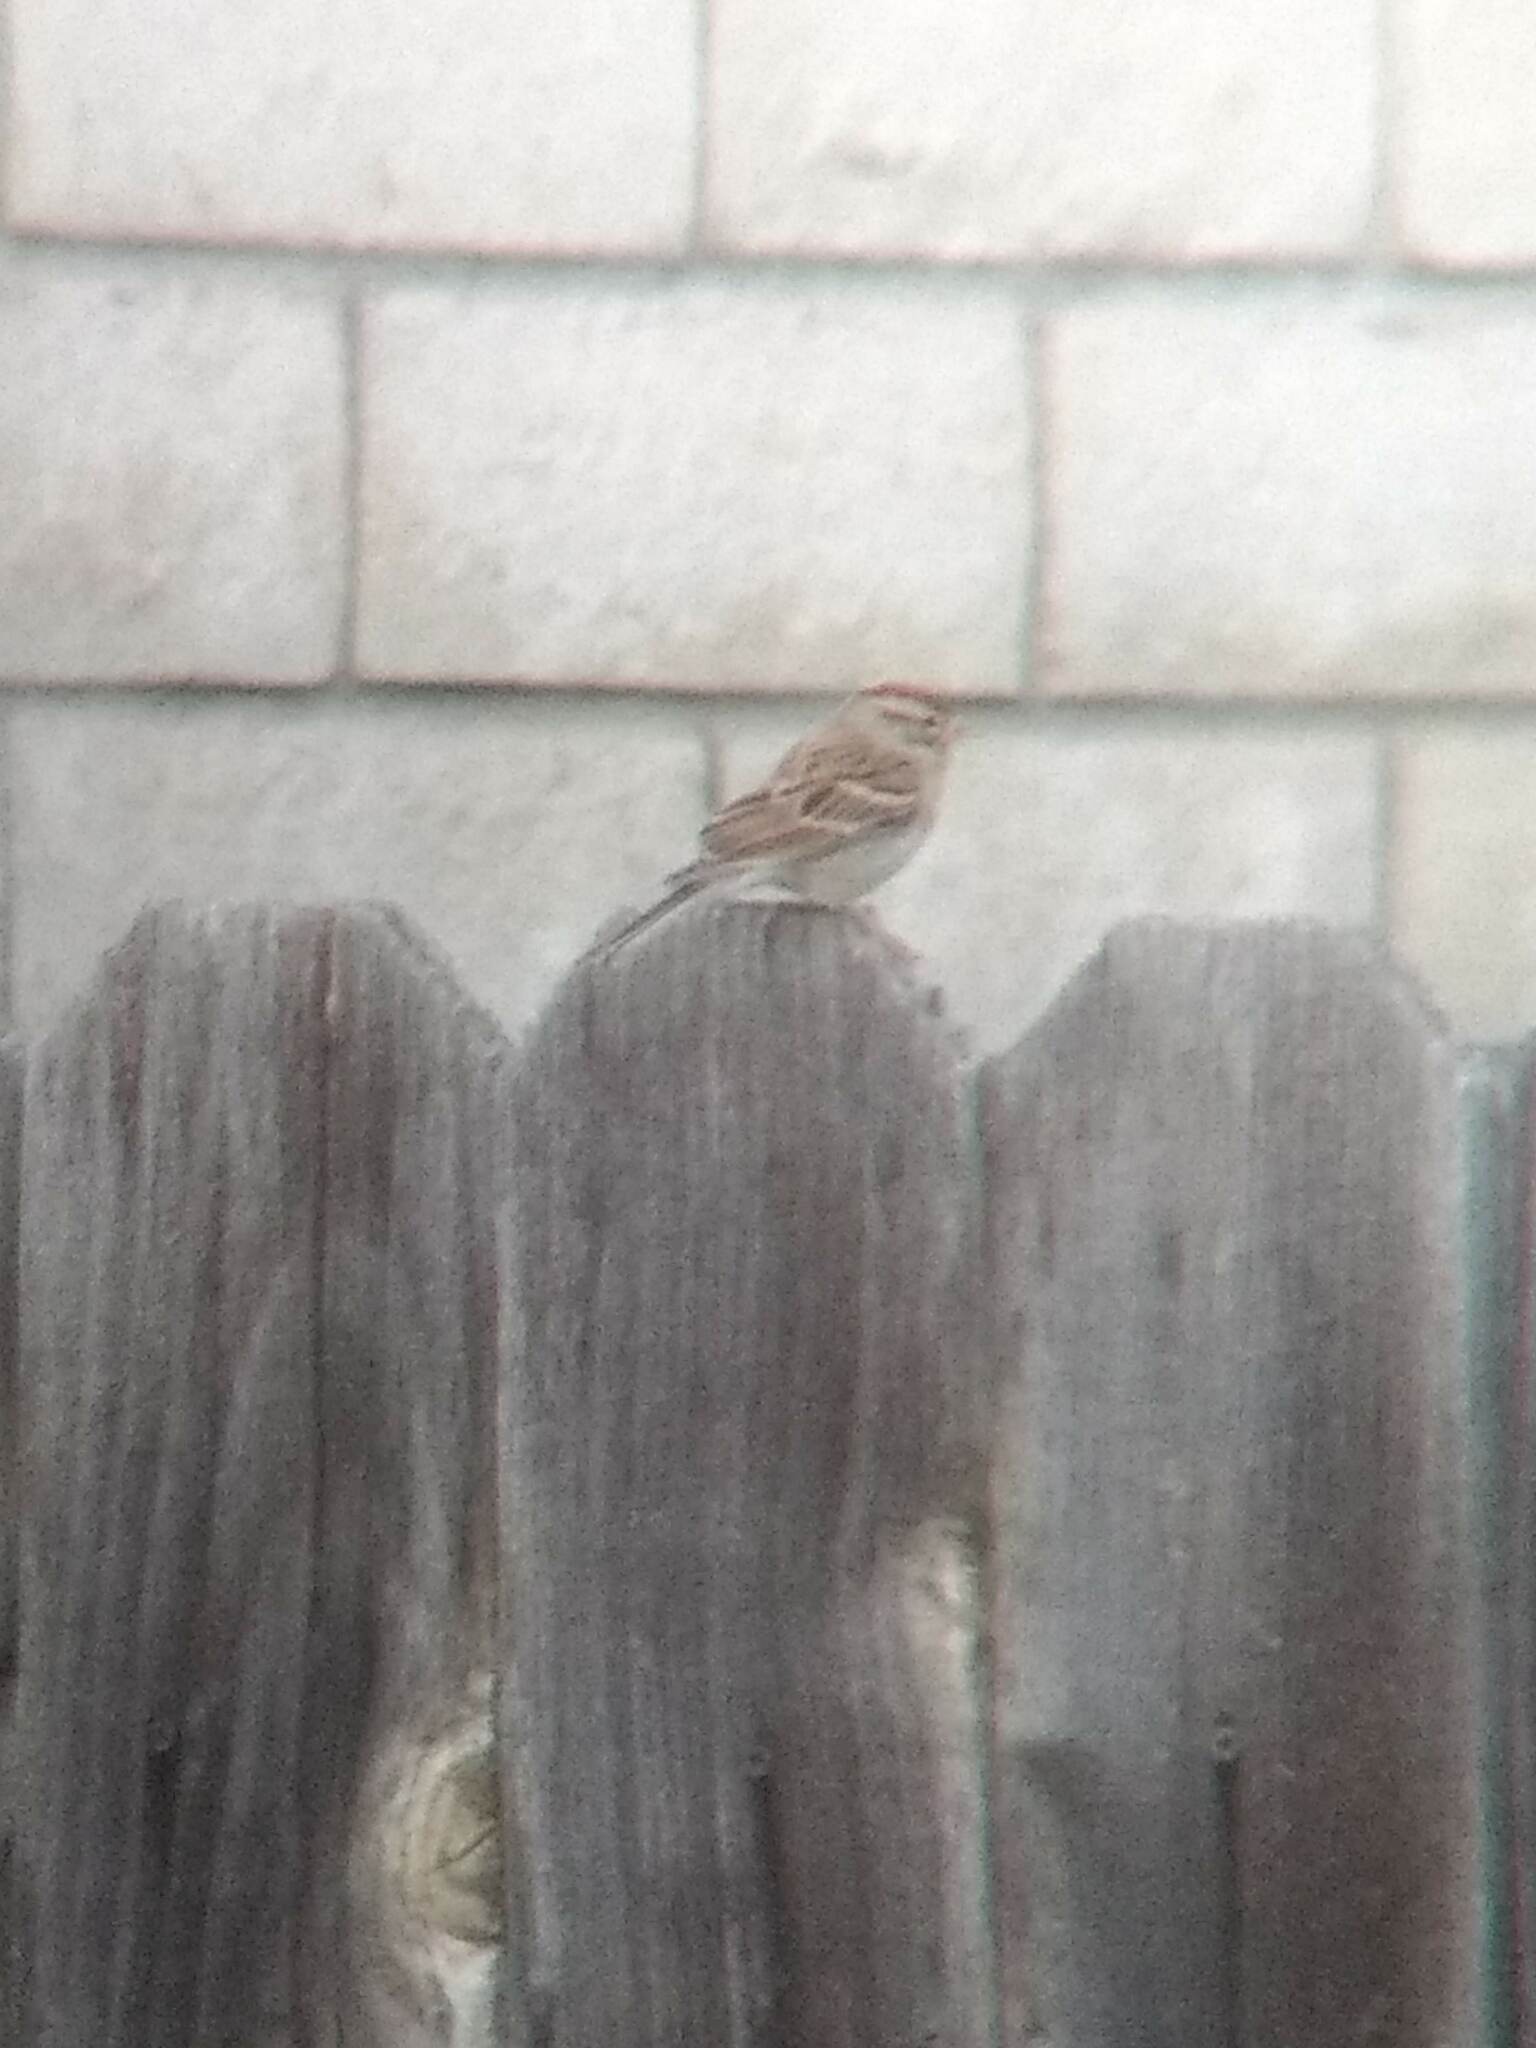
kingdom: Animalia
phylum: Chordata
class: Aves
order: Passeriformes
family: Passerellidae
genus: Spizella
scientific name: Spizella passerina
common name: Chipping sparrow
